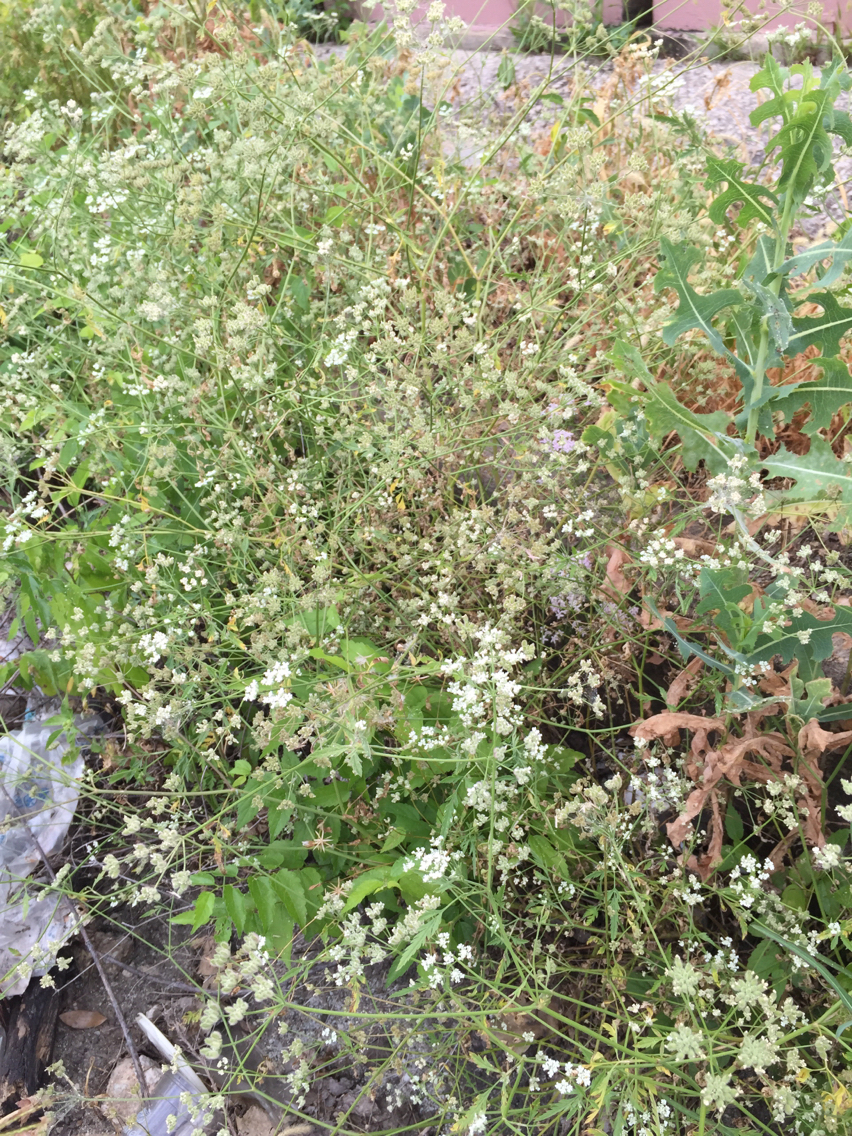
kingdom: Plantae
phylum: Tracheophyta
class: Magnoliopsida
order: Apiales
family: Apiaceae
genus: Torilis
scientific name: Torilis arvensis
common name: Spreading hedge-parsley
